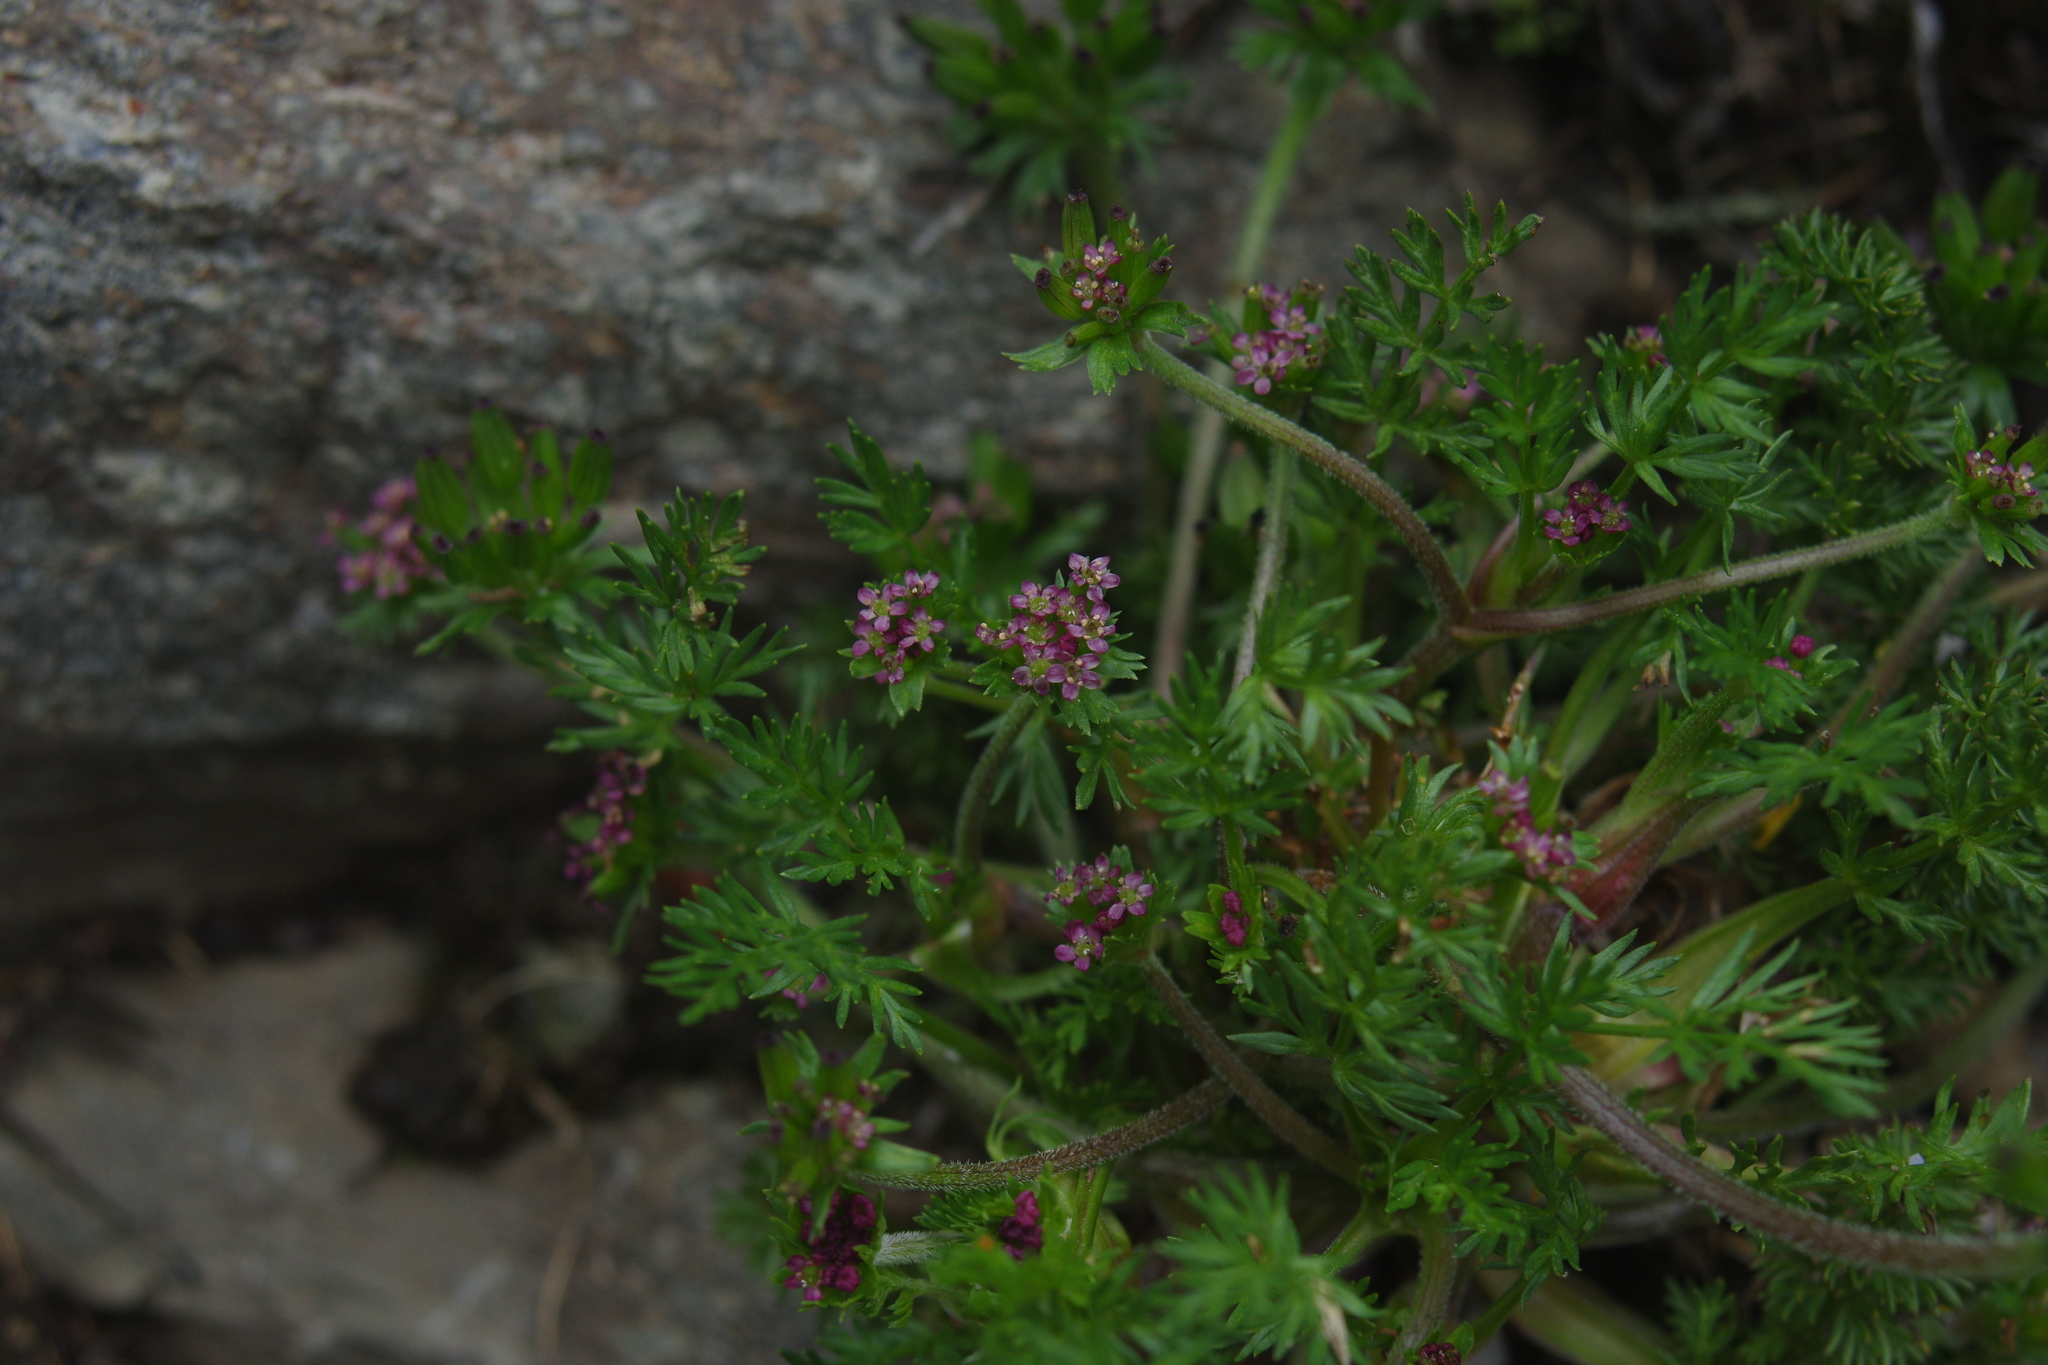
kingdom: Plantae
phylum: Tracheophyta
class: Magnoliopsida
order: Apiales
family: Apiaceae
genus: Chaerophyllum
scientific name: Chaerophyllum taiwanianum
